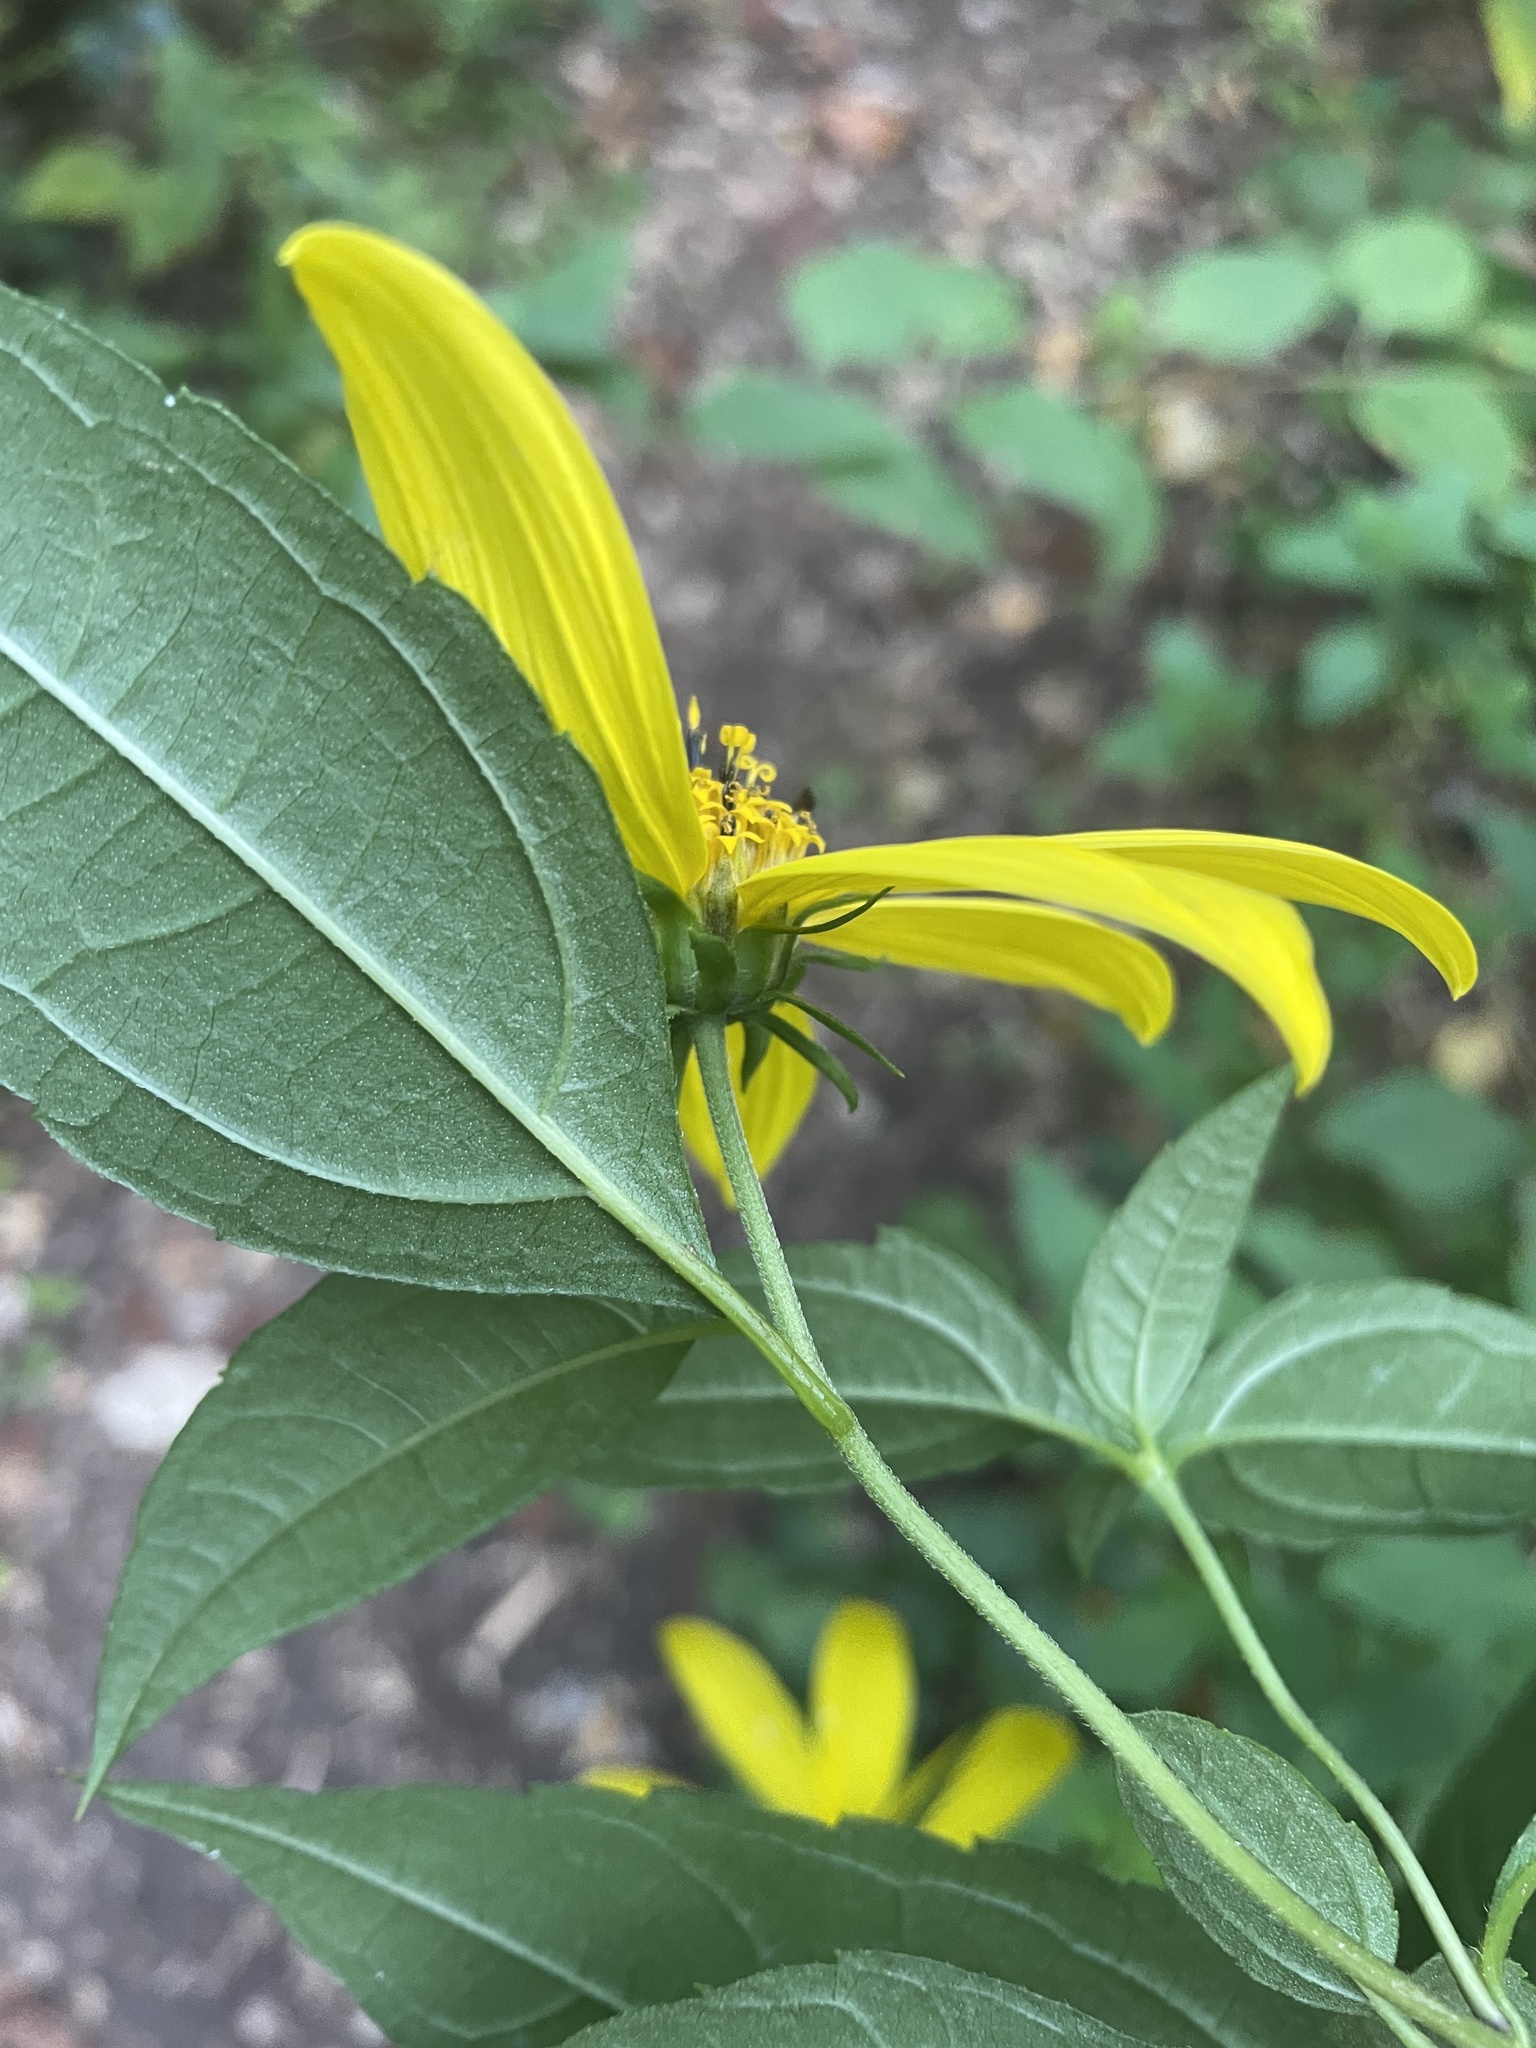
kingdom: Plantae
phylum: Tracheophyta
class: Magnoliopsida
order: Asterales
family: Asteraceae
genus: Helianthus
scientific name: Helianthus tuberosus
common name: Jerusalem artichoke
